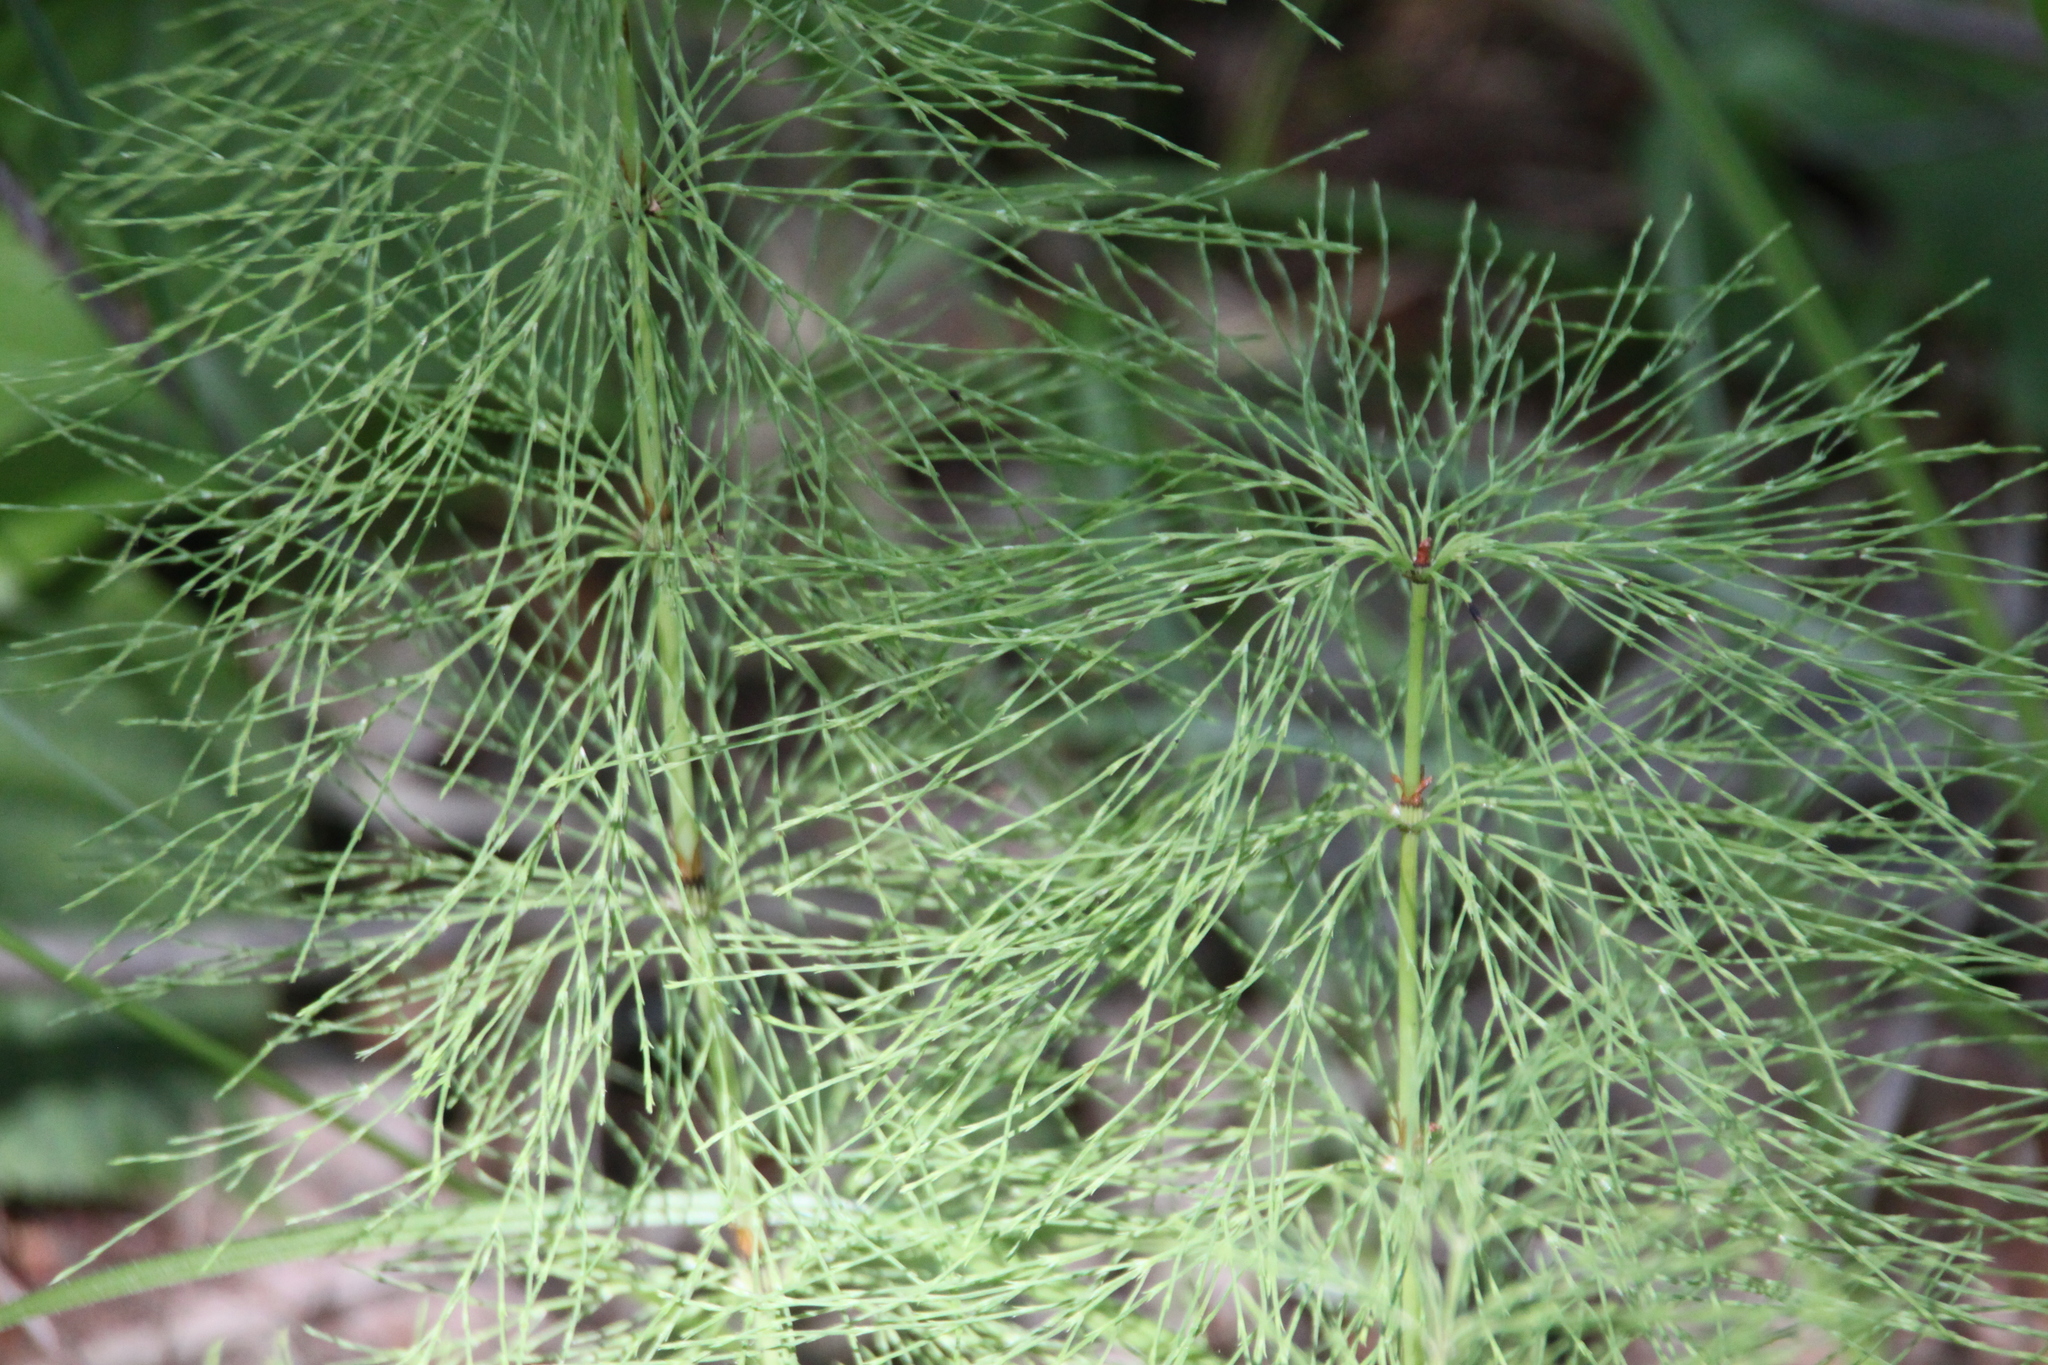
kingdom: Plantae
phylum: Tracheophyta
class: Polypodiopsida
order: Equisetales
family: Equisetaceae
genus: Equisetum
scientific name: Equisetum sylvaticum
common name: Wood horsetail
